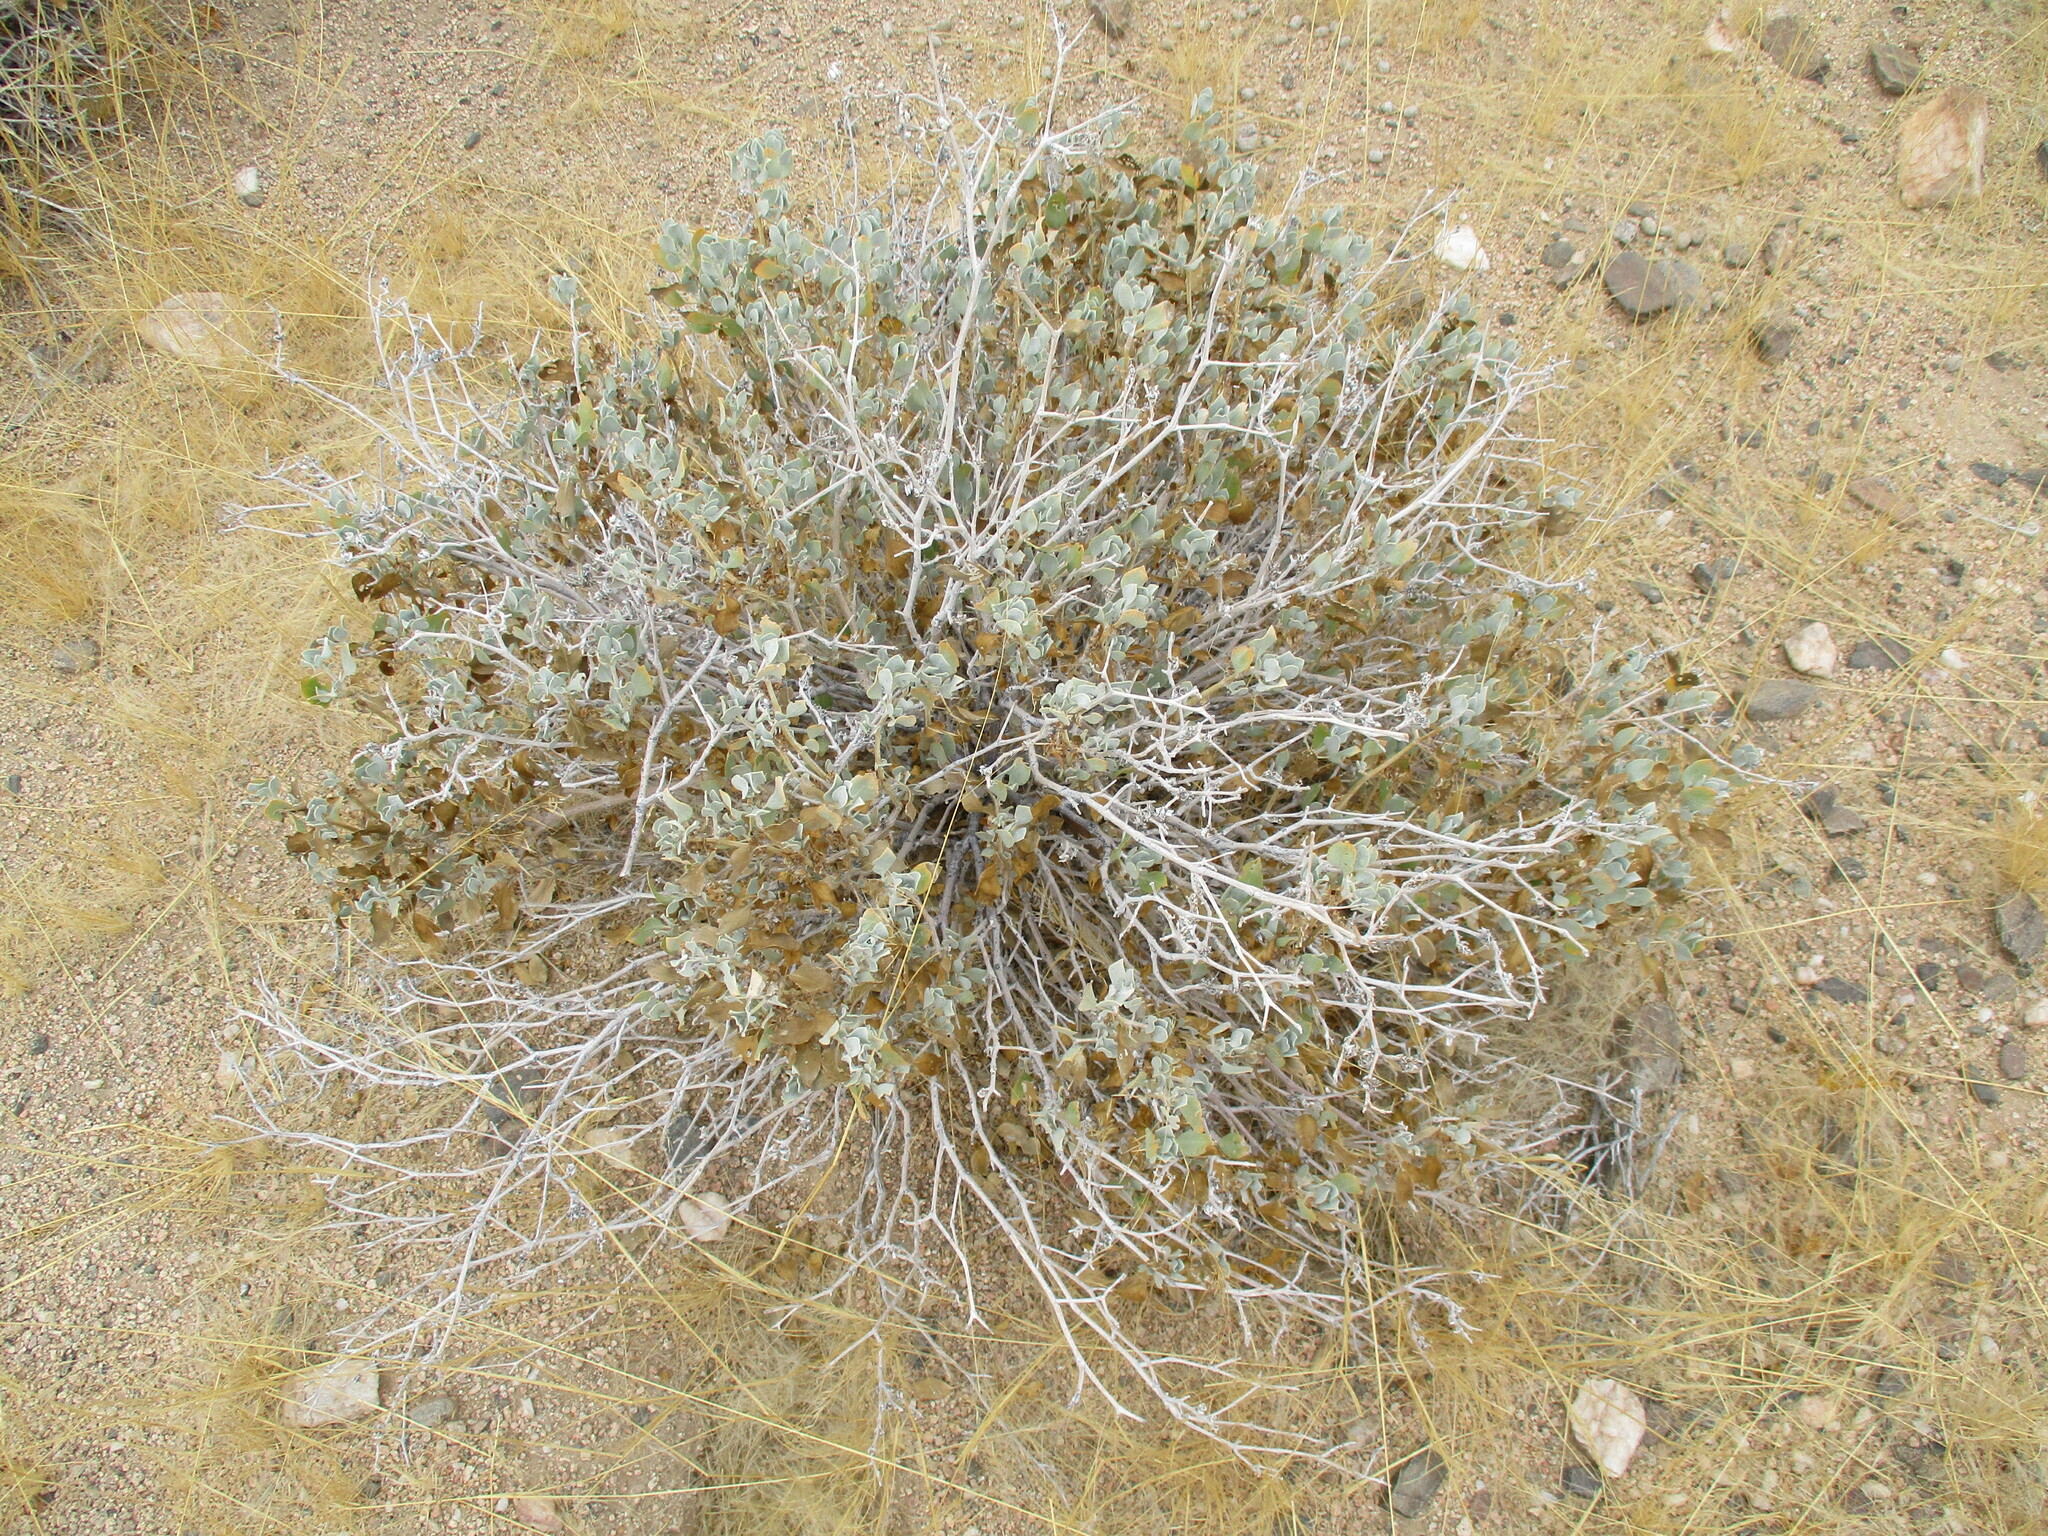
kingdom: Plantae
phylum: Tracheophyta
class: Magnoliopsida
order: Lamiales
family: Acanthaceae
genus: Petalidium
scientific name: Petalidium variabile
